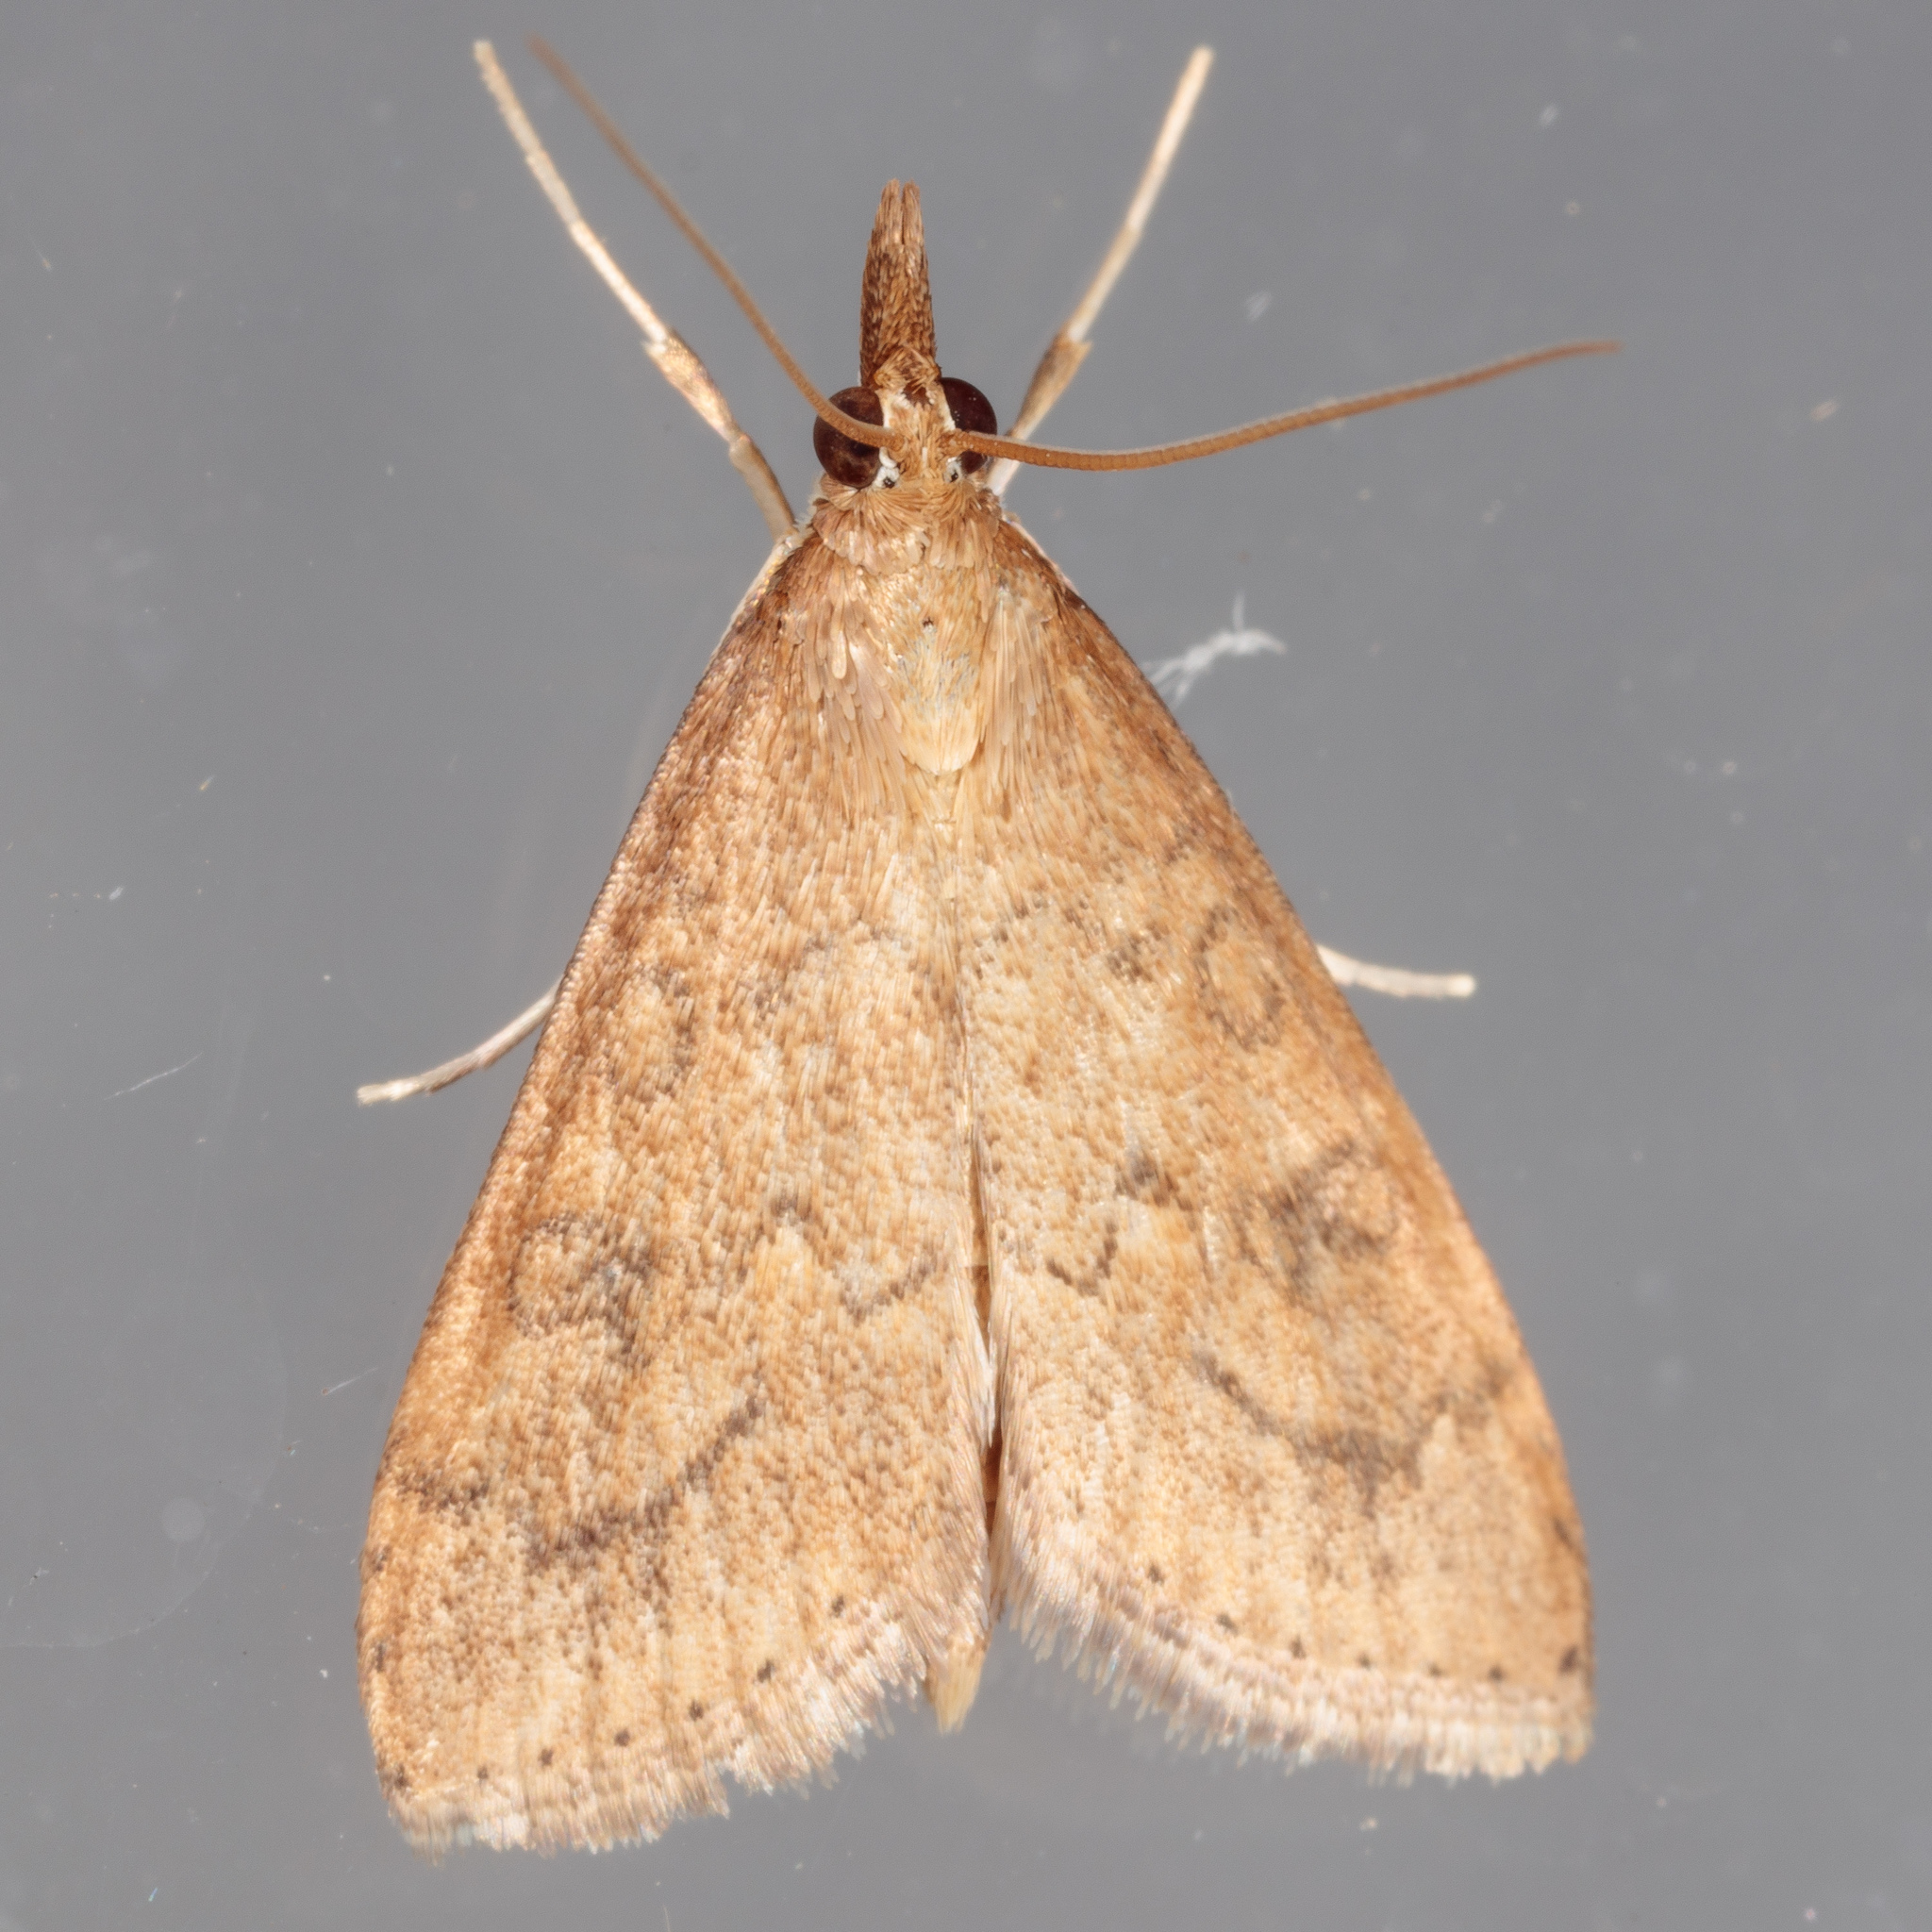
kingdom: Animalia
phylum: Arthropoda
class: Insecta
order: Lepidoptera
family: Crambidae
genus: Udea
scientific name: Udea rubigalis
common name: Celery leaftier moth
